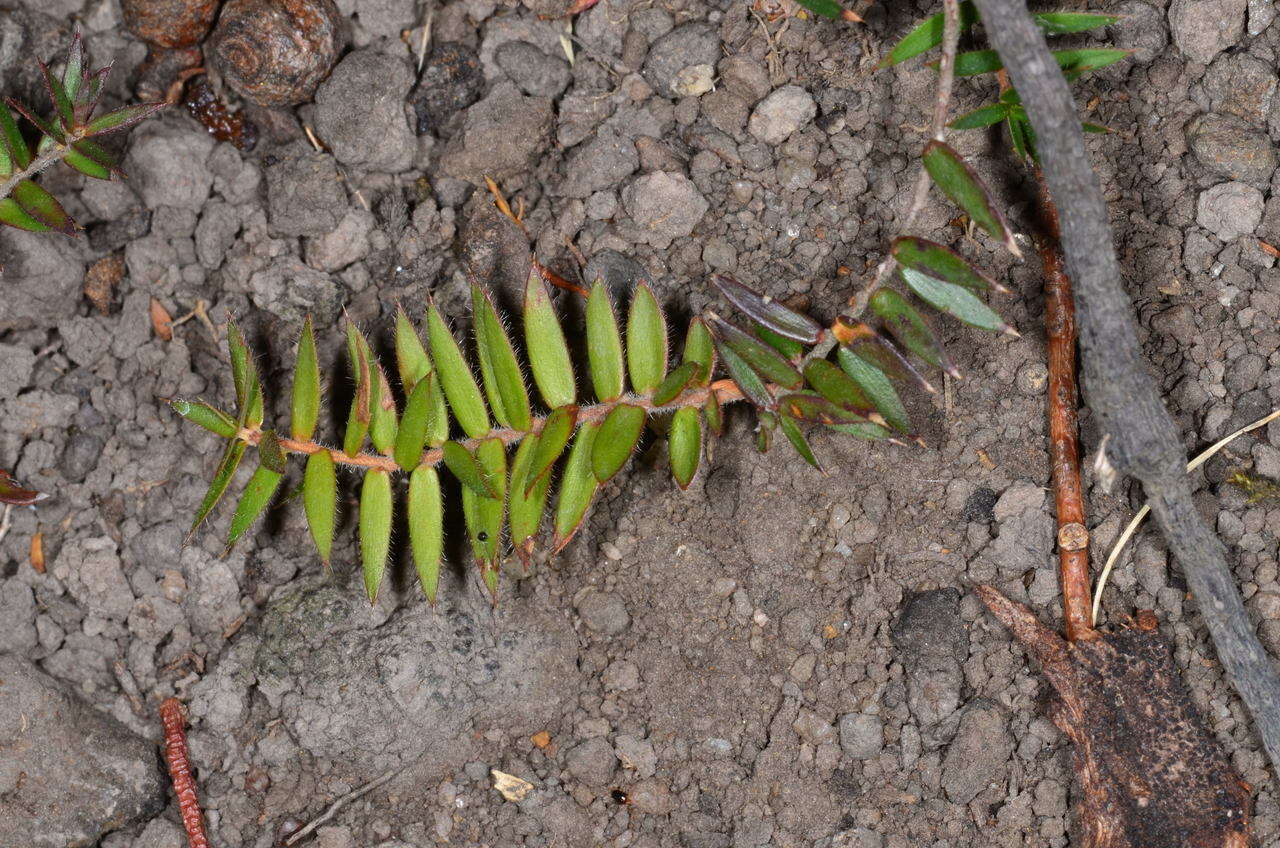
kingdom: Plantae
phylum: Tracheophyta
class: Magnoliopsida
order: Ericales
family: Ericaceae
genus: Acrotriche
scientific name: Acrotriche prostrata
